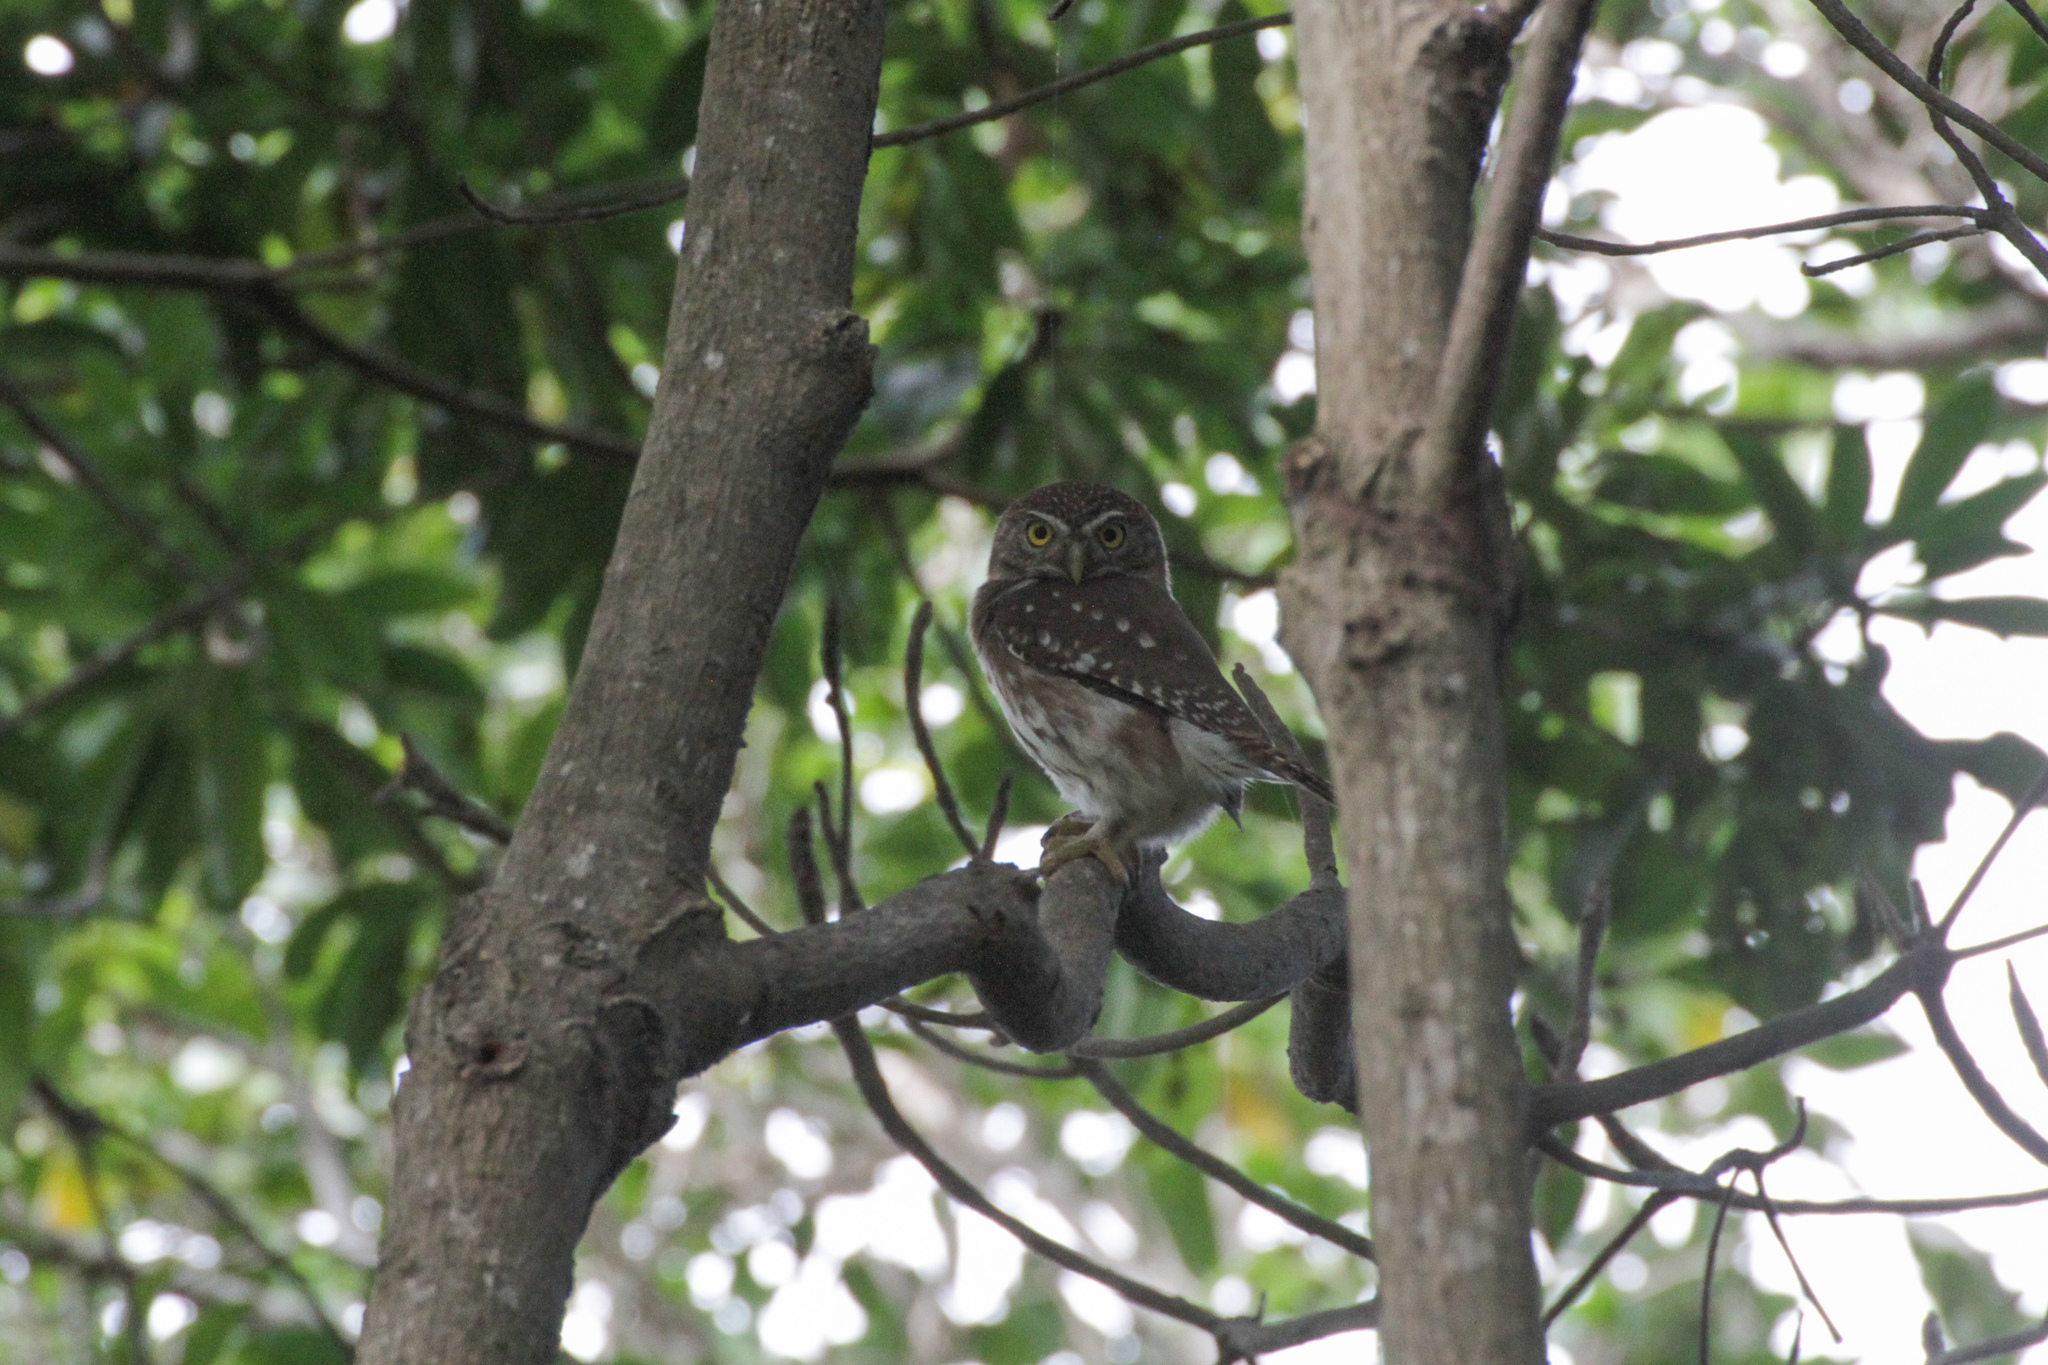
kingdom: Animalia
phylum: Chordata
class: Aves
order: Strigiformes
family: Strigidae
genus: Glaucidium
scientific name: Glaucidium brasilianum
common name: Ferruginous pygmy-owl
